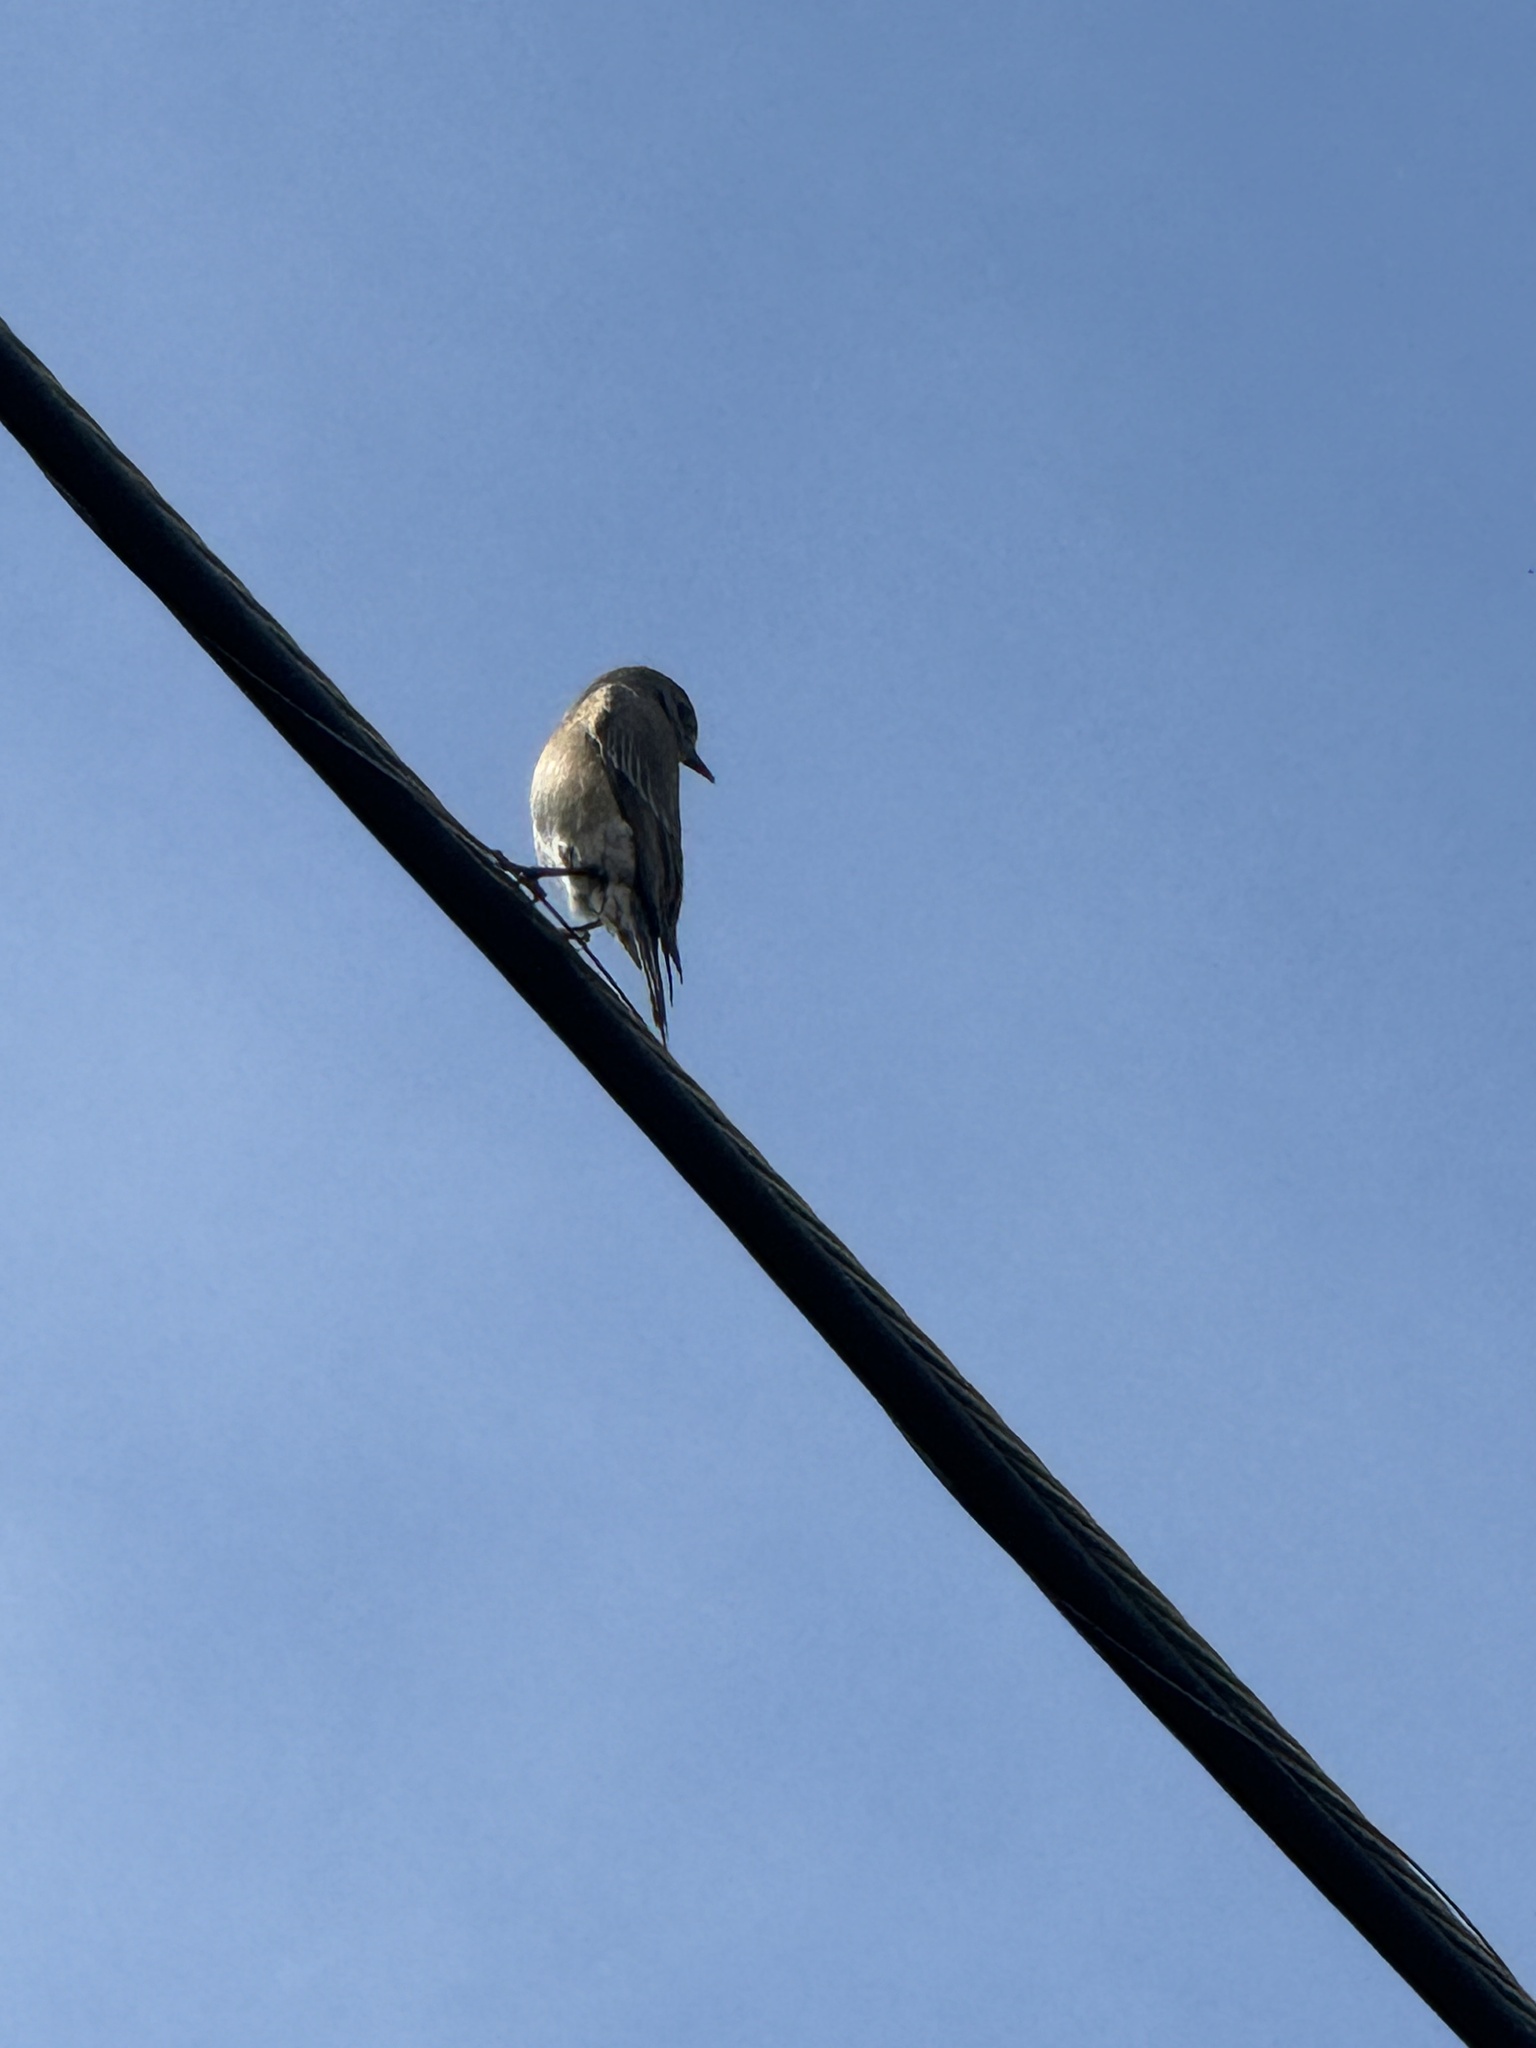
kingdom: Animalia
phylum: Chordata
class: Aves
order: Passeriformes
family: Turdidae
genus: Sialia
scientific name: Sialia mexicana
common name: Western bluebird
